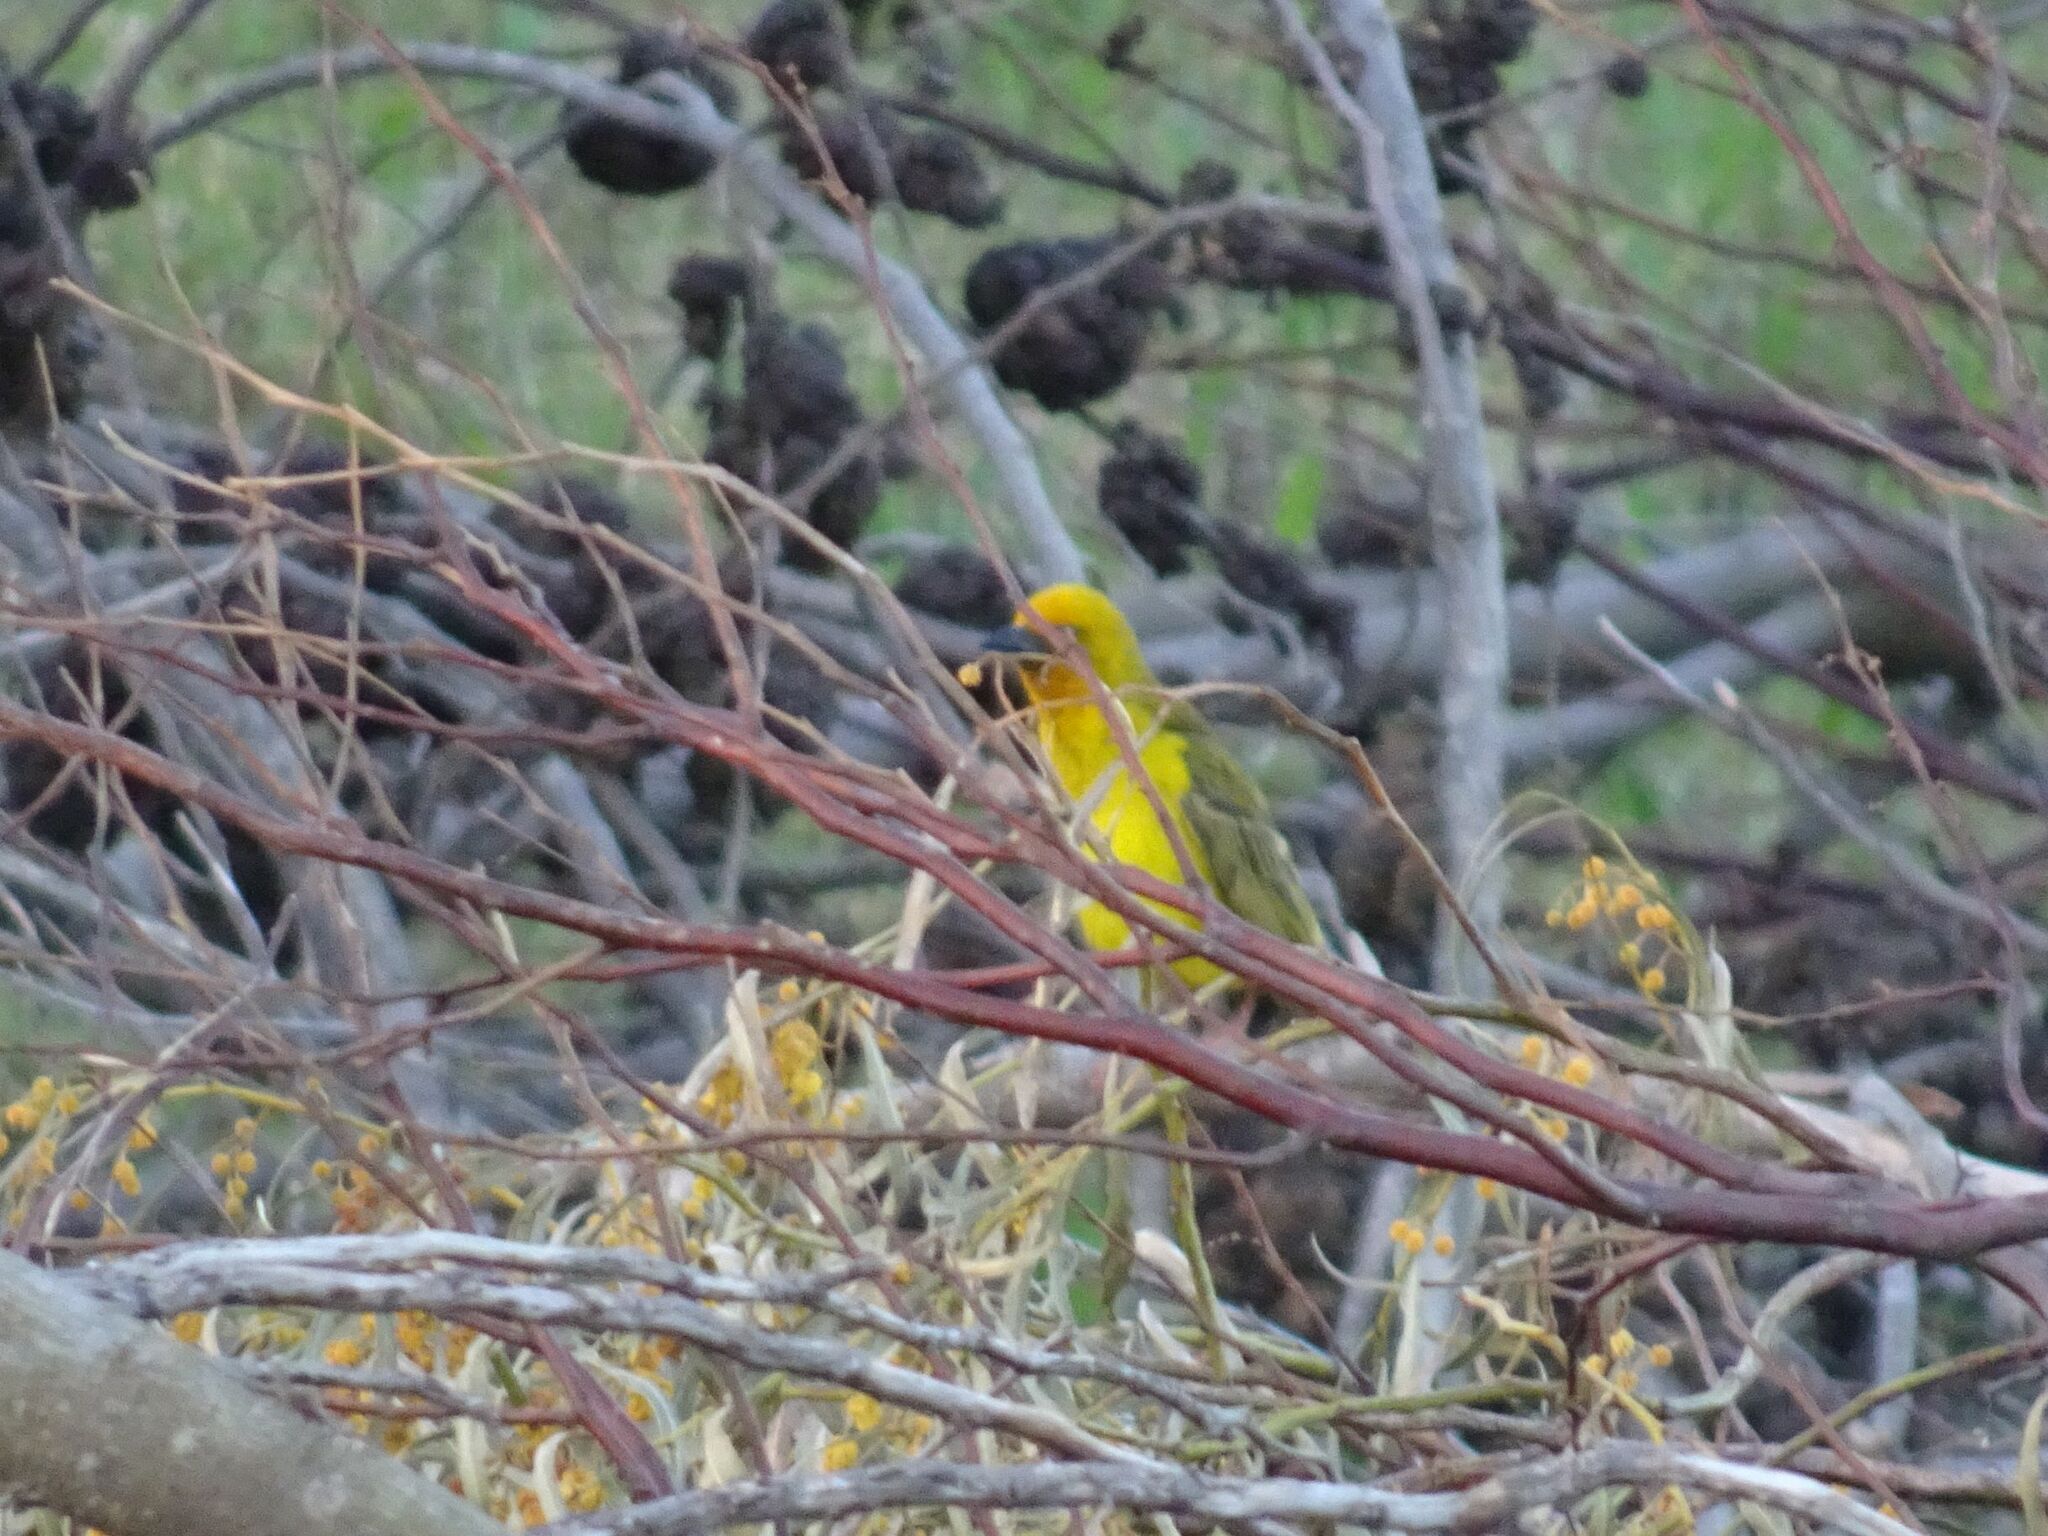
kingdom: Animalia
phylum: Chordata
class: Aves
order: Passeriformes
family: Ploceidae
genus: Ploceus
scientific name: Ploceus capensis
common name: Cape weaver
